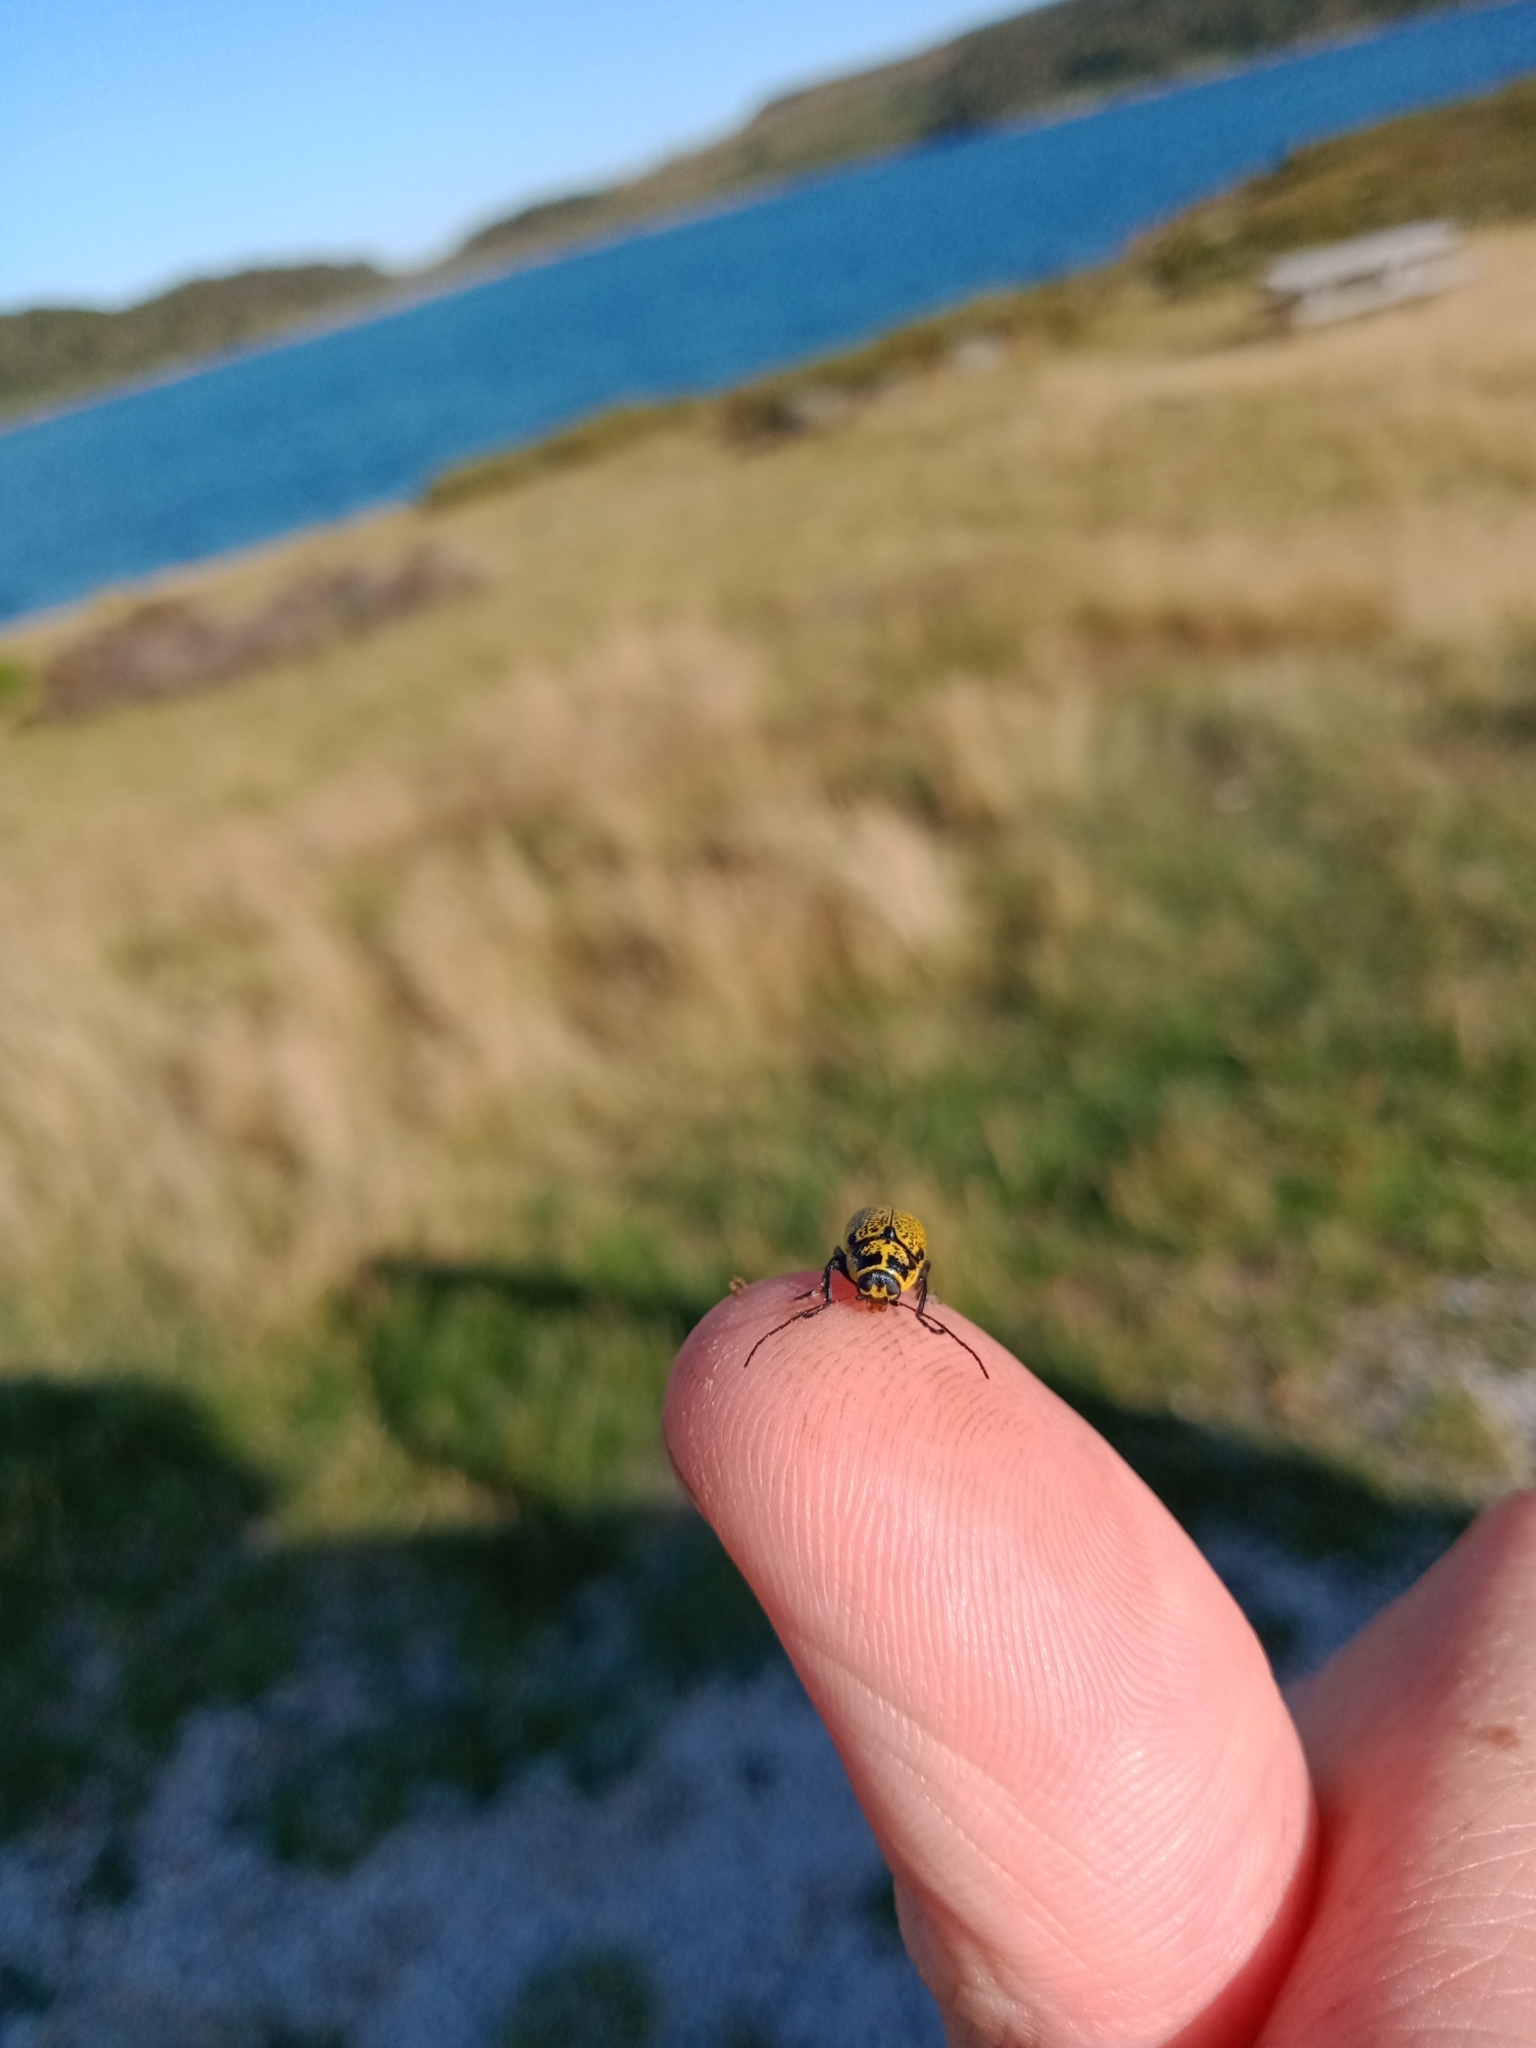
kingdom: Animalia
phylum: Arthropoda
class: Insecta
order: Coleoptera
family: Chrysomelidae
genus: Aporocera
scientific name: Aporocera
